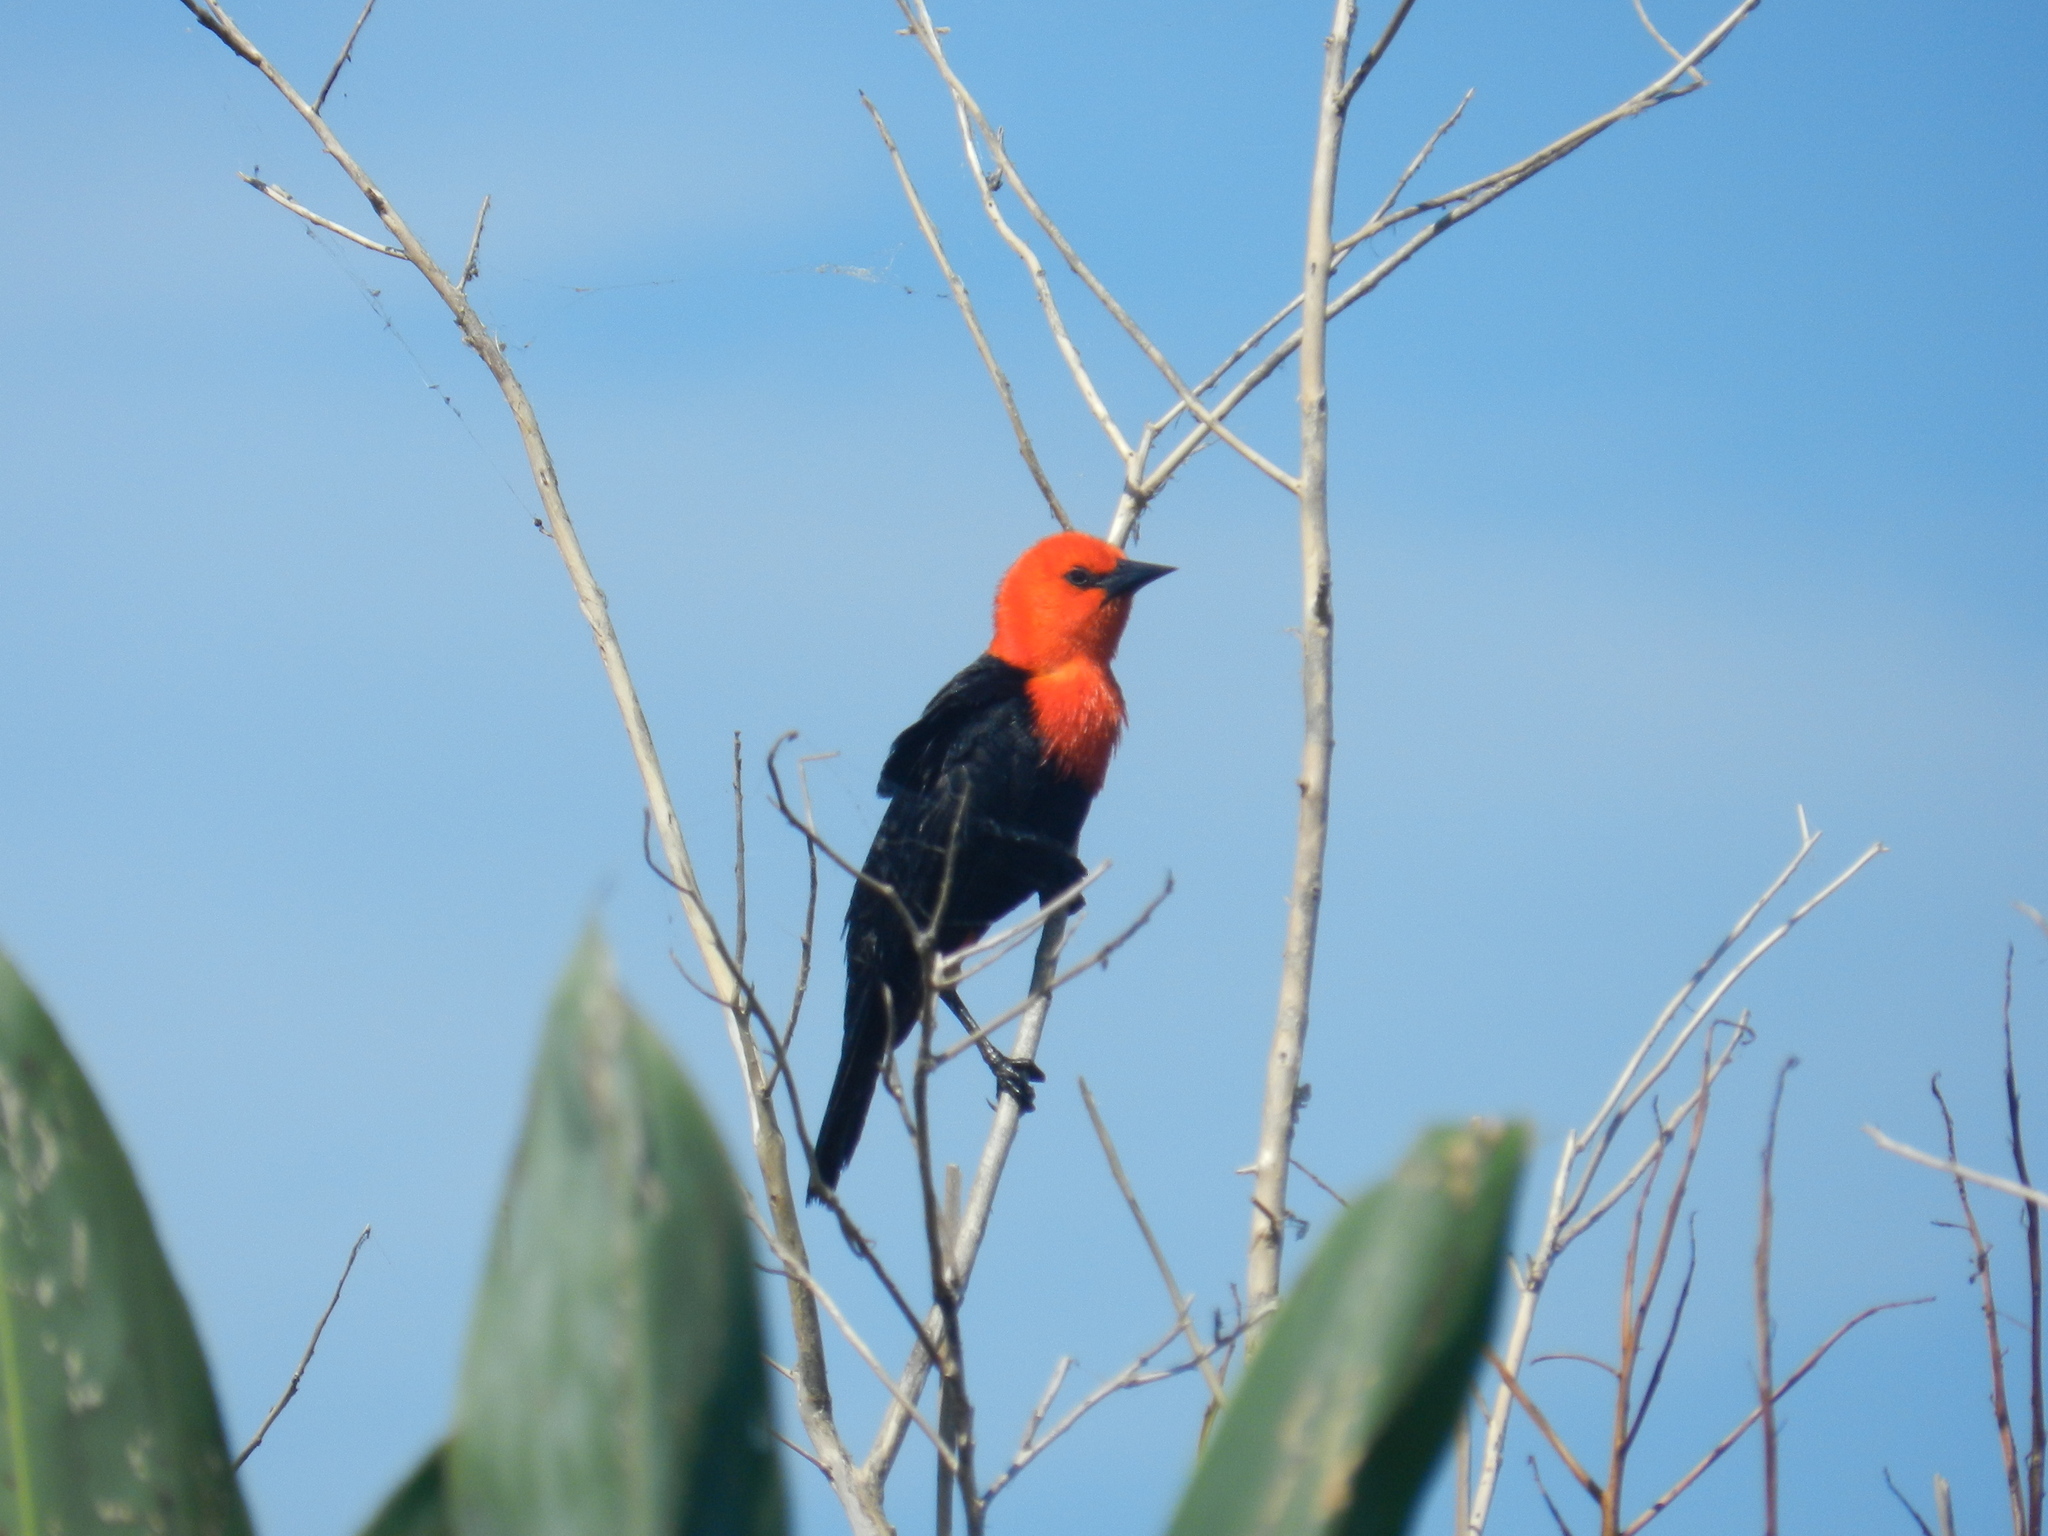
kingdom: Animalia
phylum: Chordata
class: Aves
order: Passeriformes
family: Icteridae
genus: Amblyramphus
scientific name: Amblyramphus holosericeus
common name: Scarlet-headed blackbird
